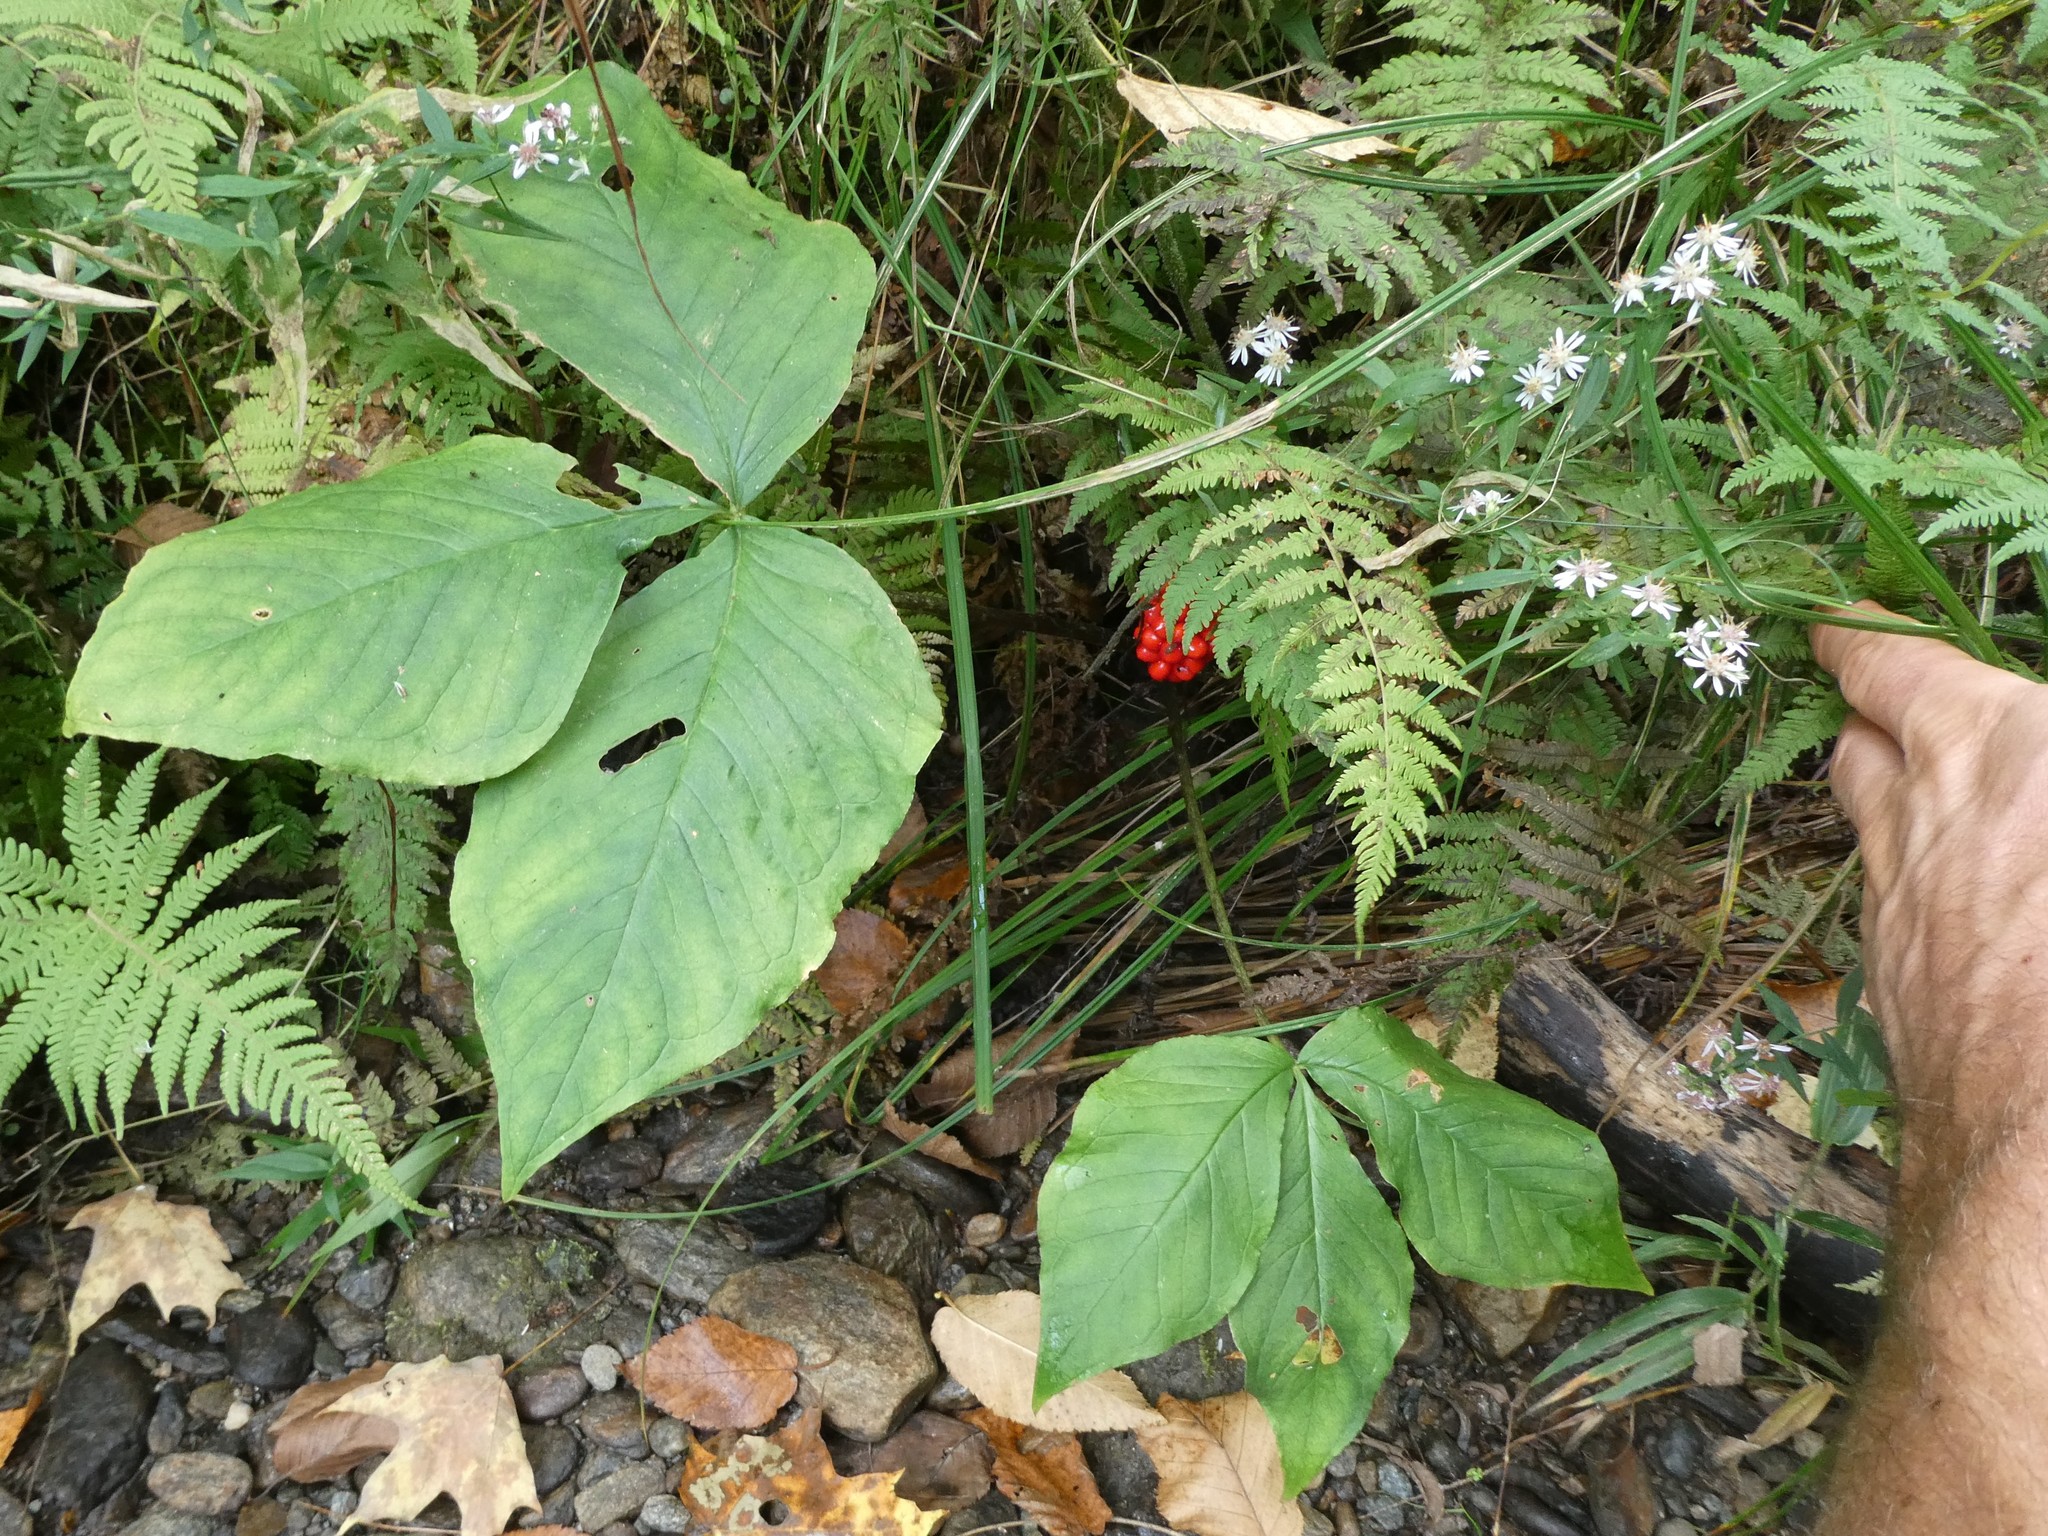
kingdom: Plantae
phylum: Tracheophyta
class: Liliopsida
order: Alismatales
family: Araceae
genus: Arisaema
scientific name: Arisaema triphyllum
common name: Jack-in-the-pulpit
